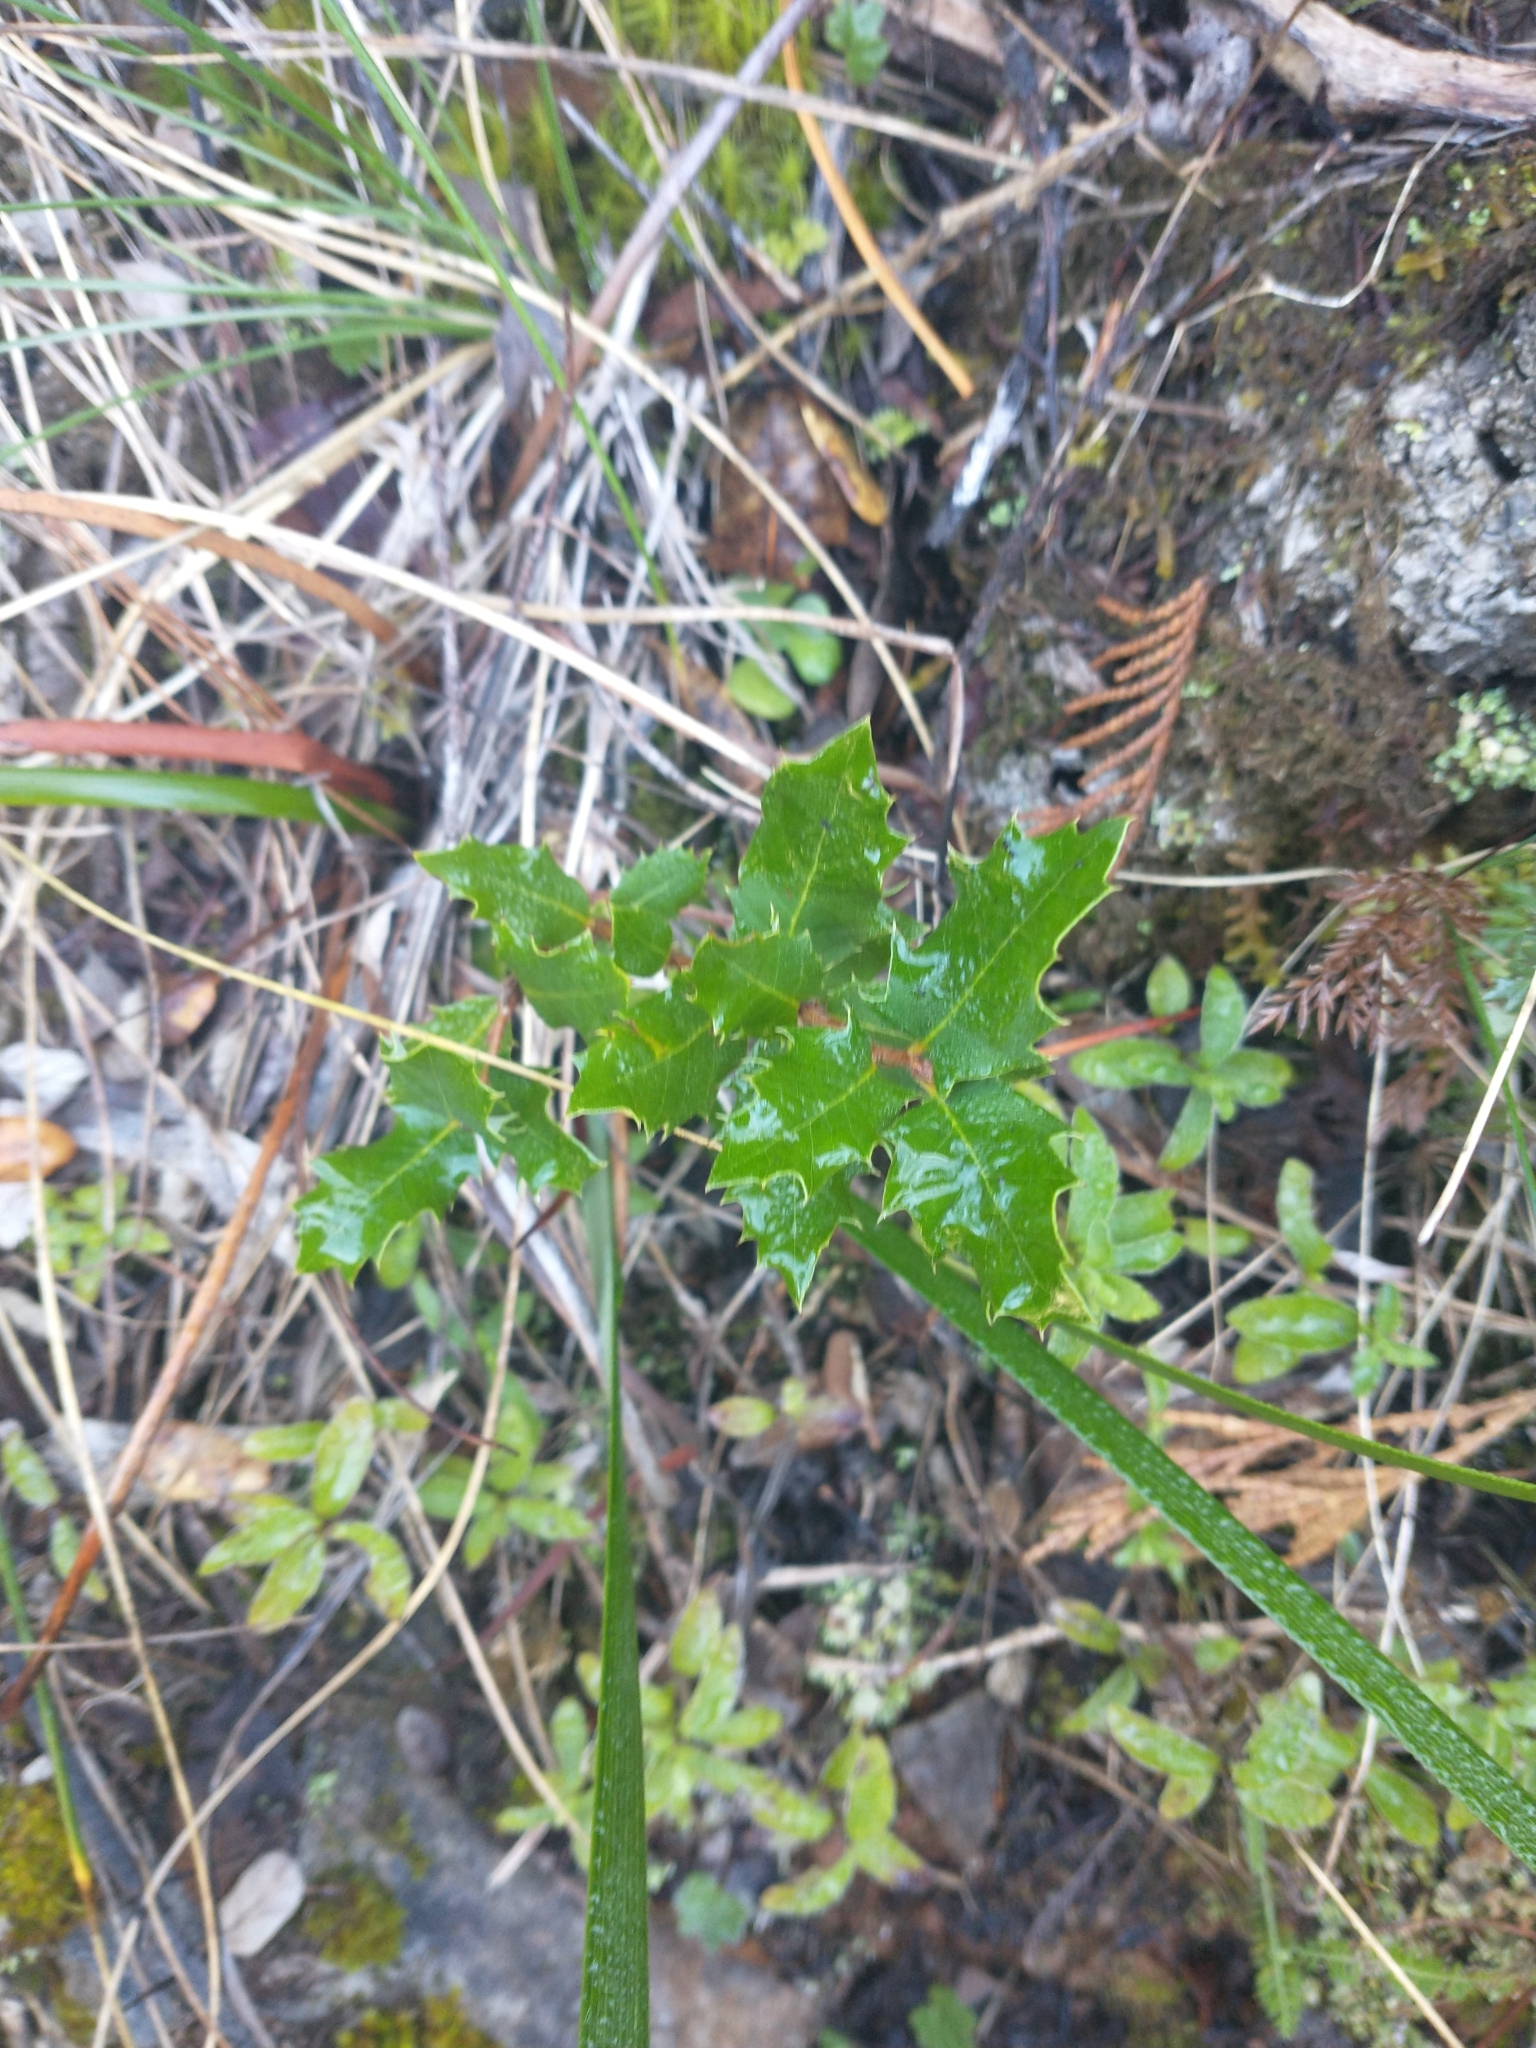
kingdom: Plantae
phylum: Tracheophyta
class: Magnoliopsida
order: Fagales
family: Fagaceae
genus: Quercus
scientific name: Quercus chrysolepis
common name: Canyon live oak
